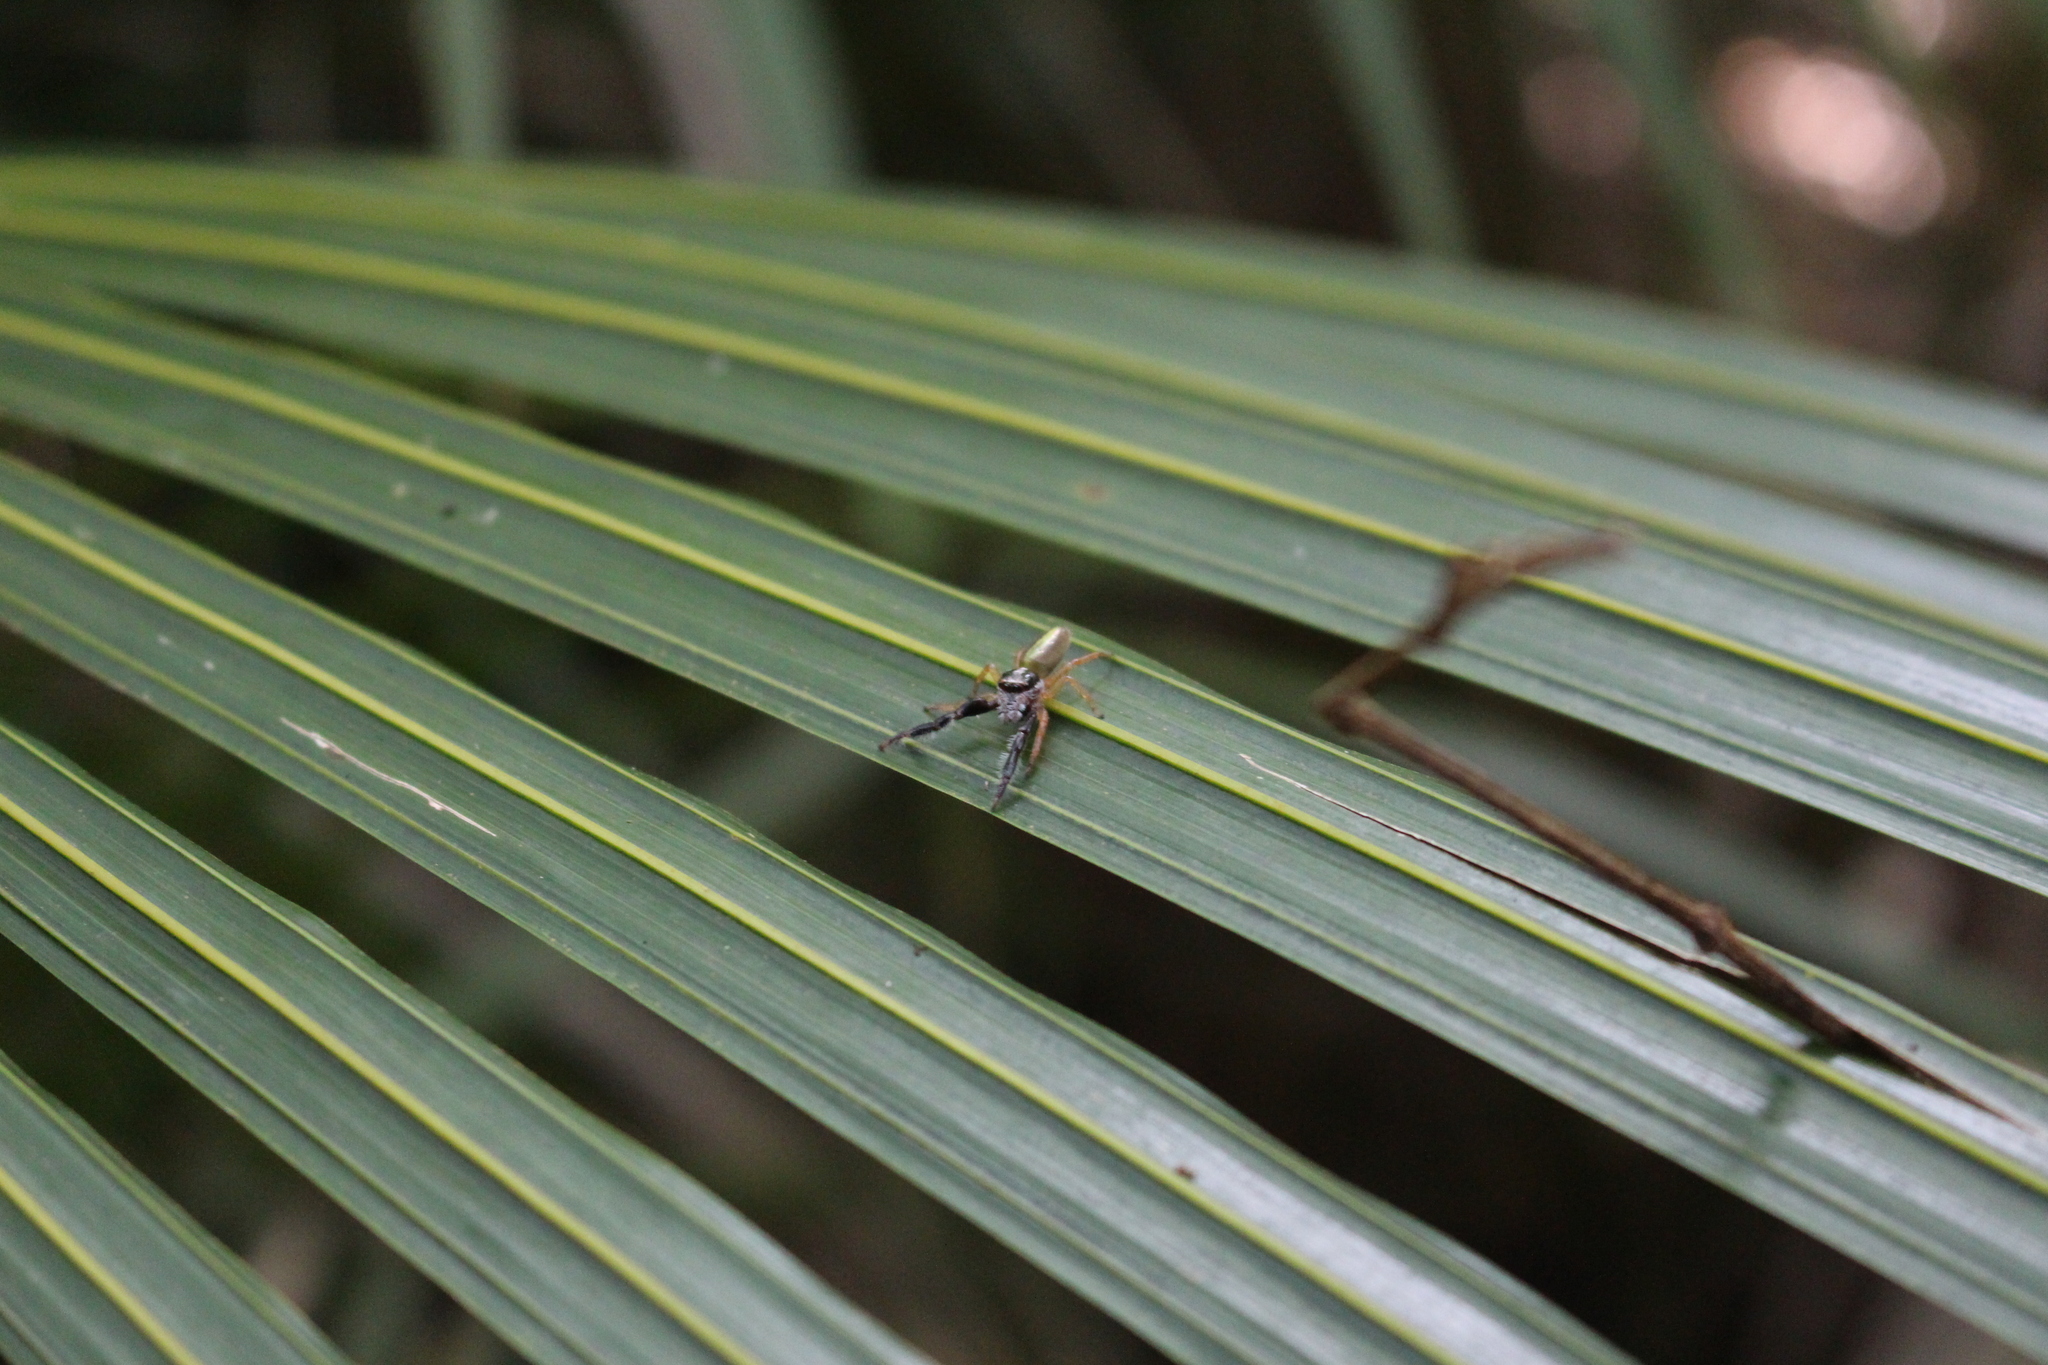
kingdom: Animalia
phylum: Arthropoda
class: Arachnida
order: Araneae
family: Salticidae
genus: Trite
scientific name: Trite planiceps
